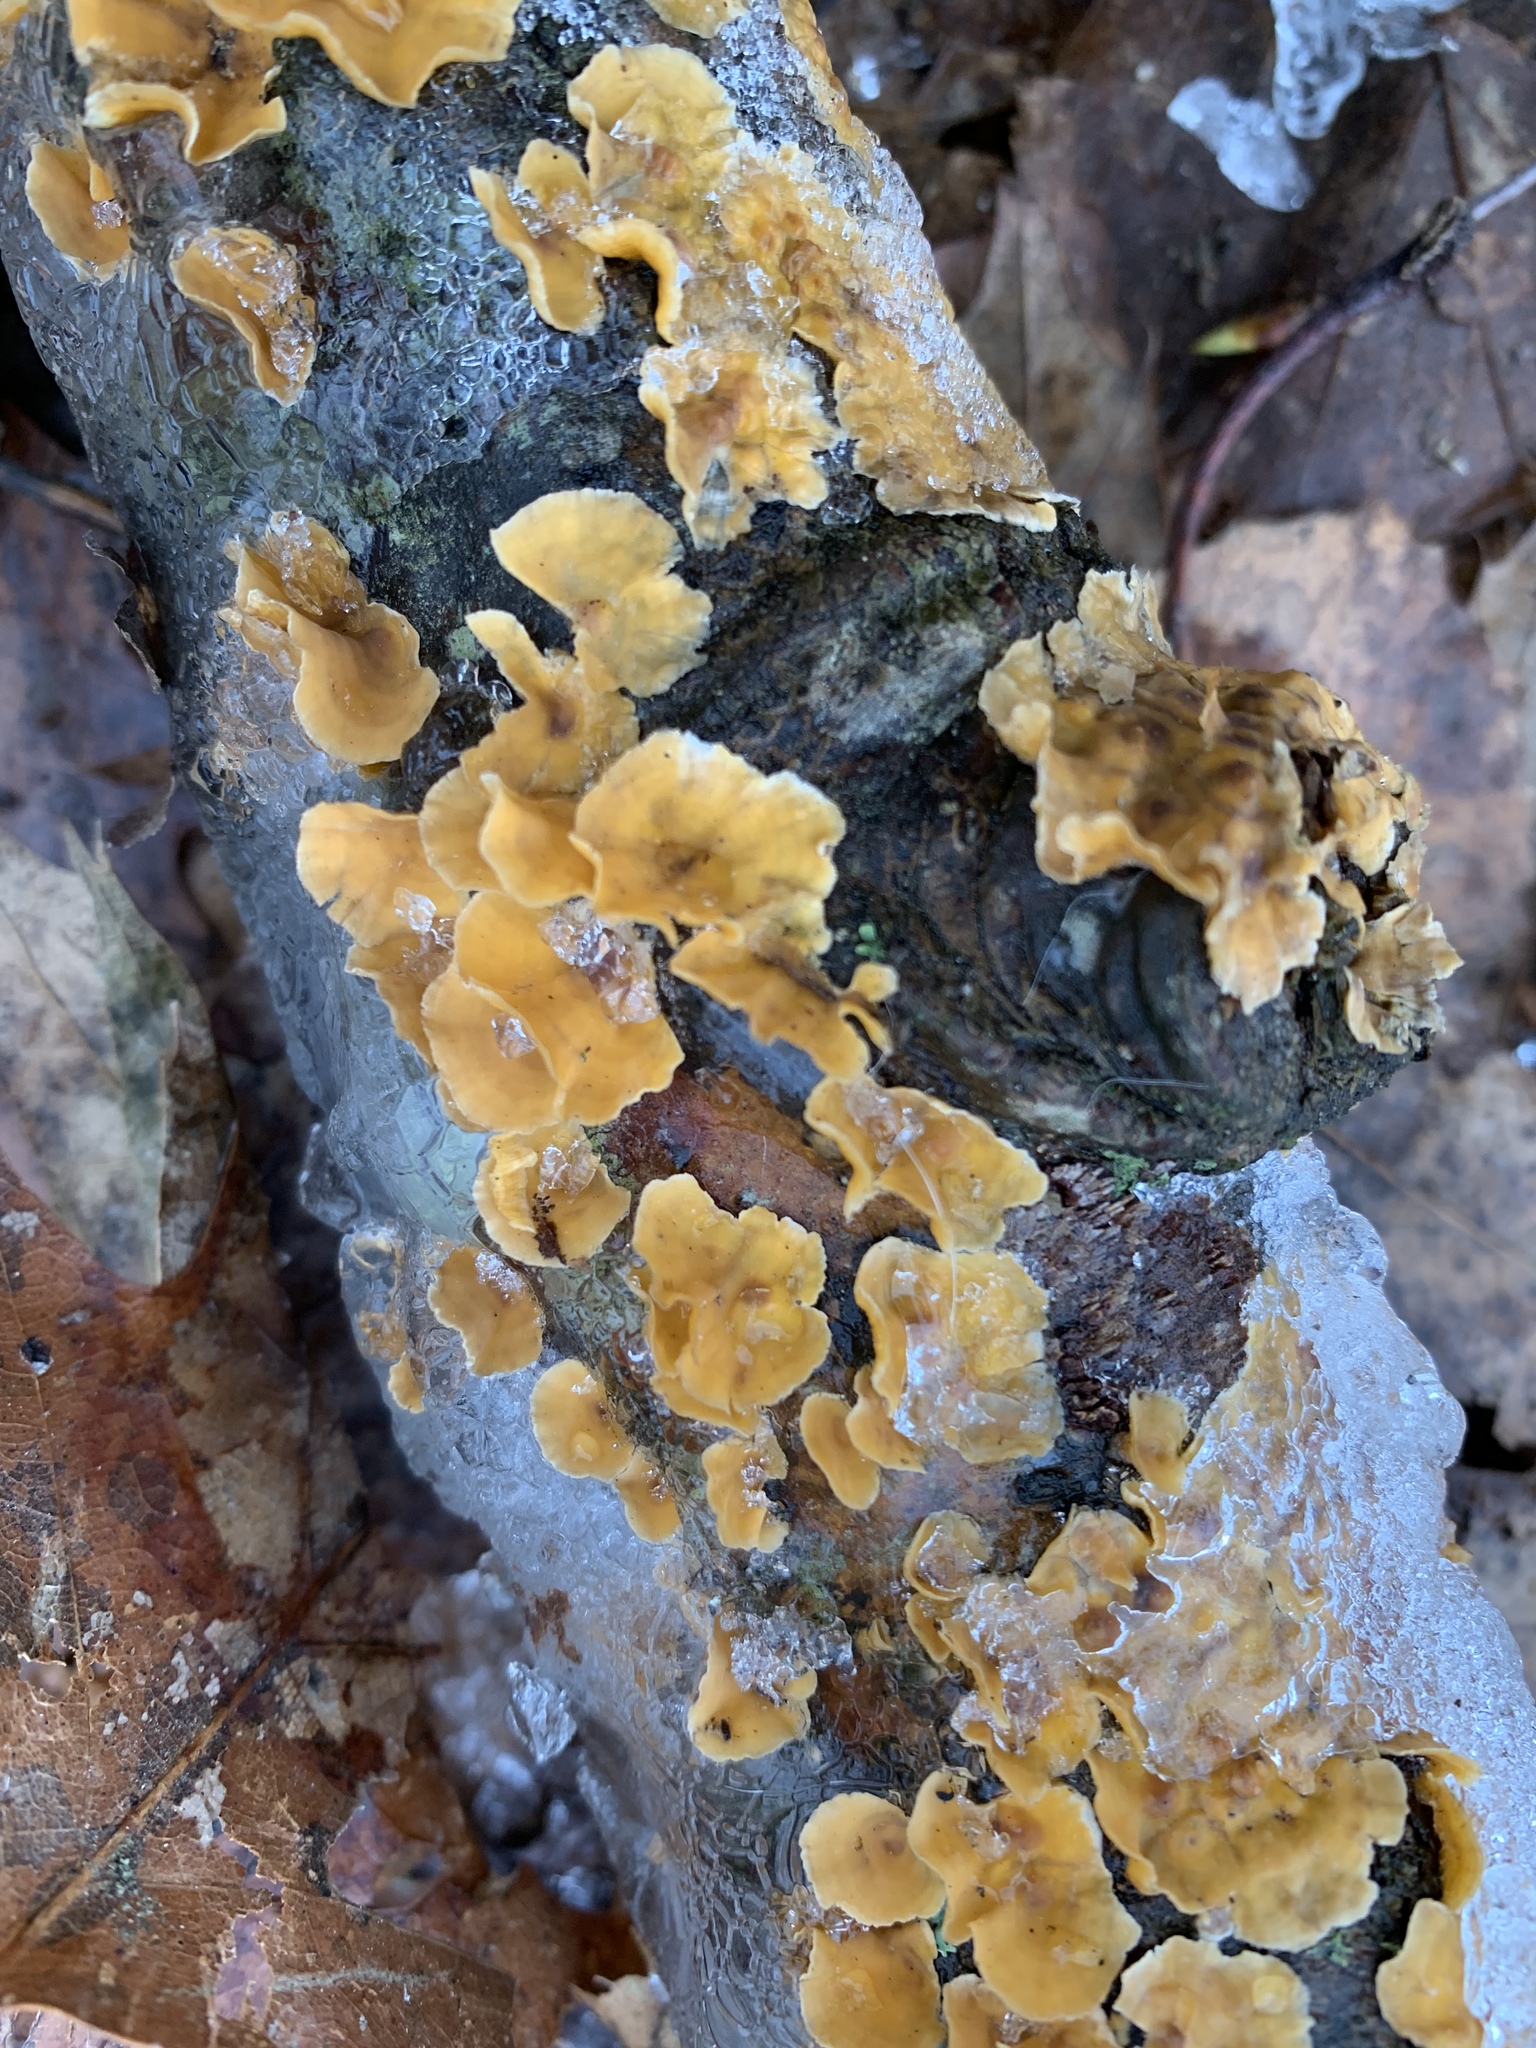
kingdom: Fungi
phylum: Basidiomycota
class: Agaricomycetes
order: Russulales
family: Stereaceae
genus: Stereum
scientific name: Stereum complicatum
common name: Crowded parchment
